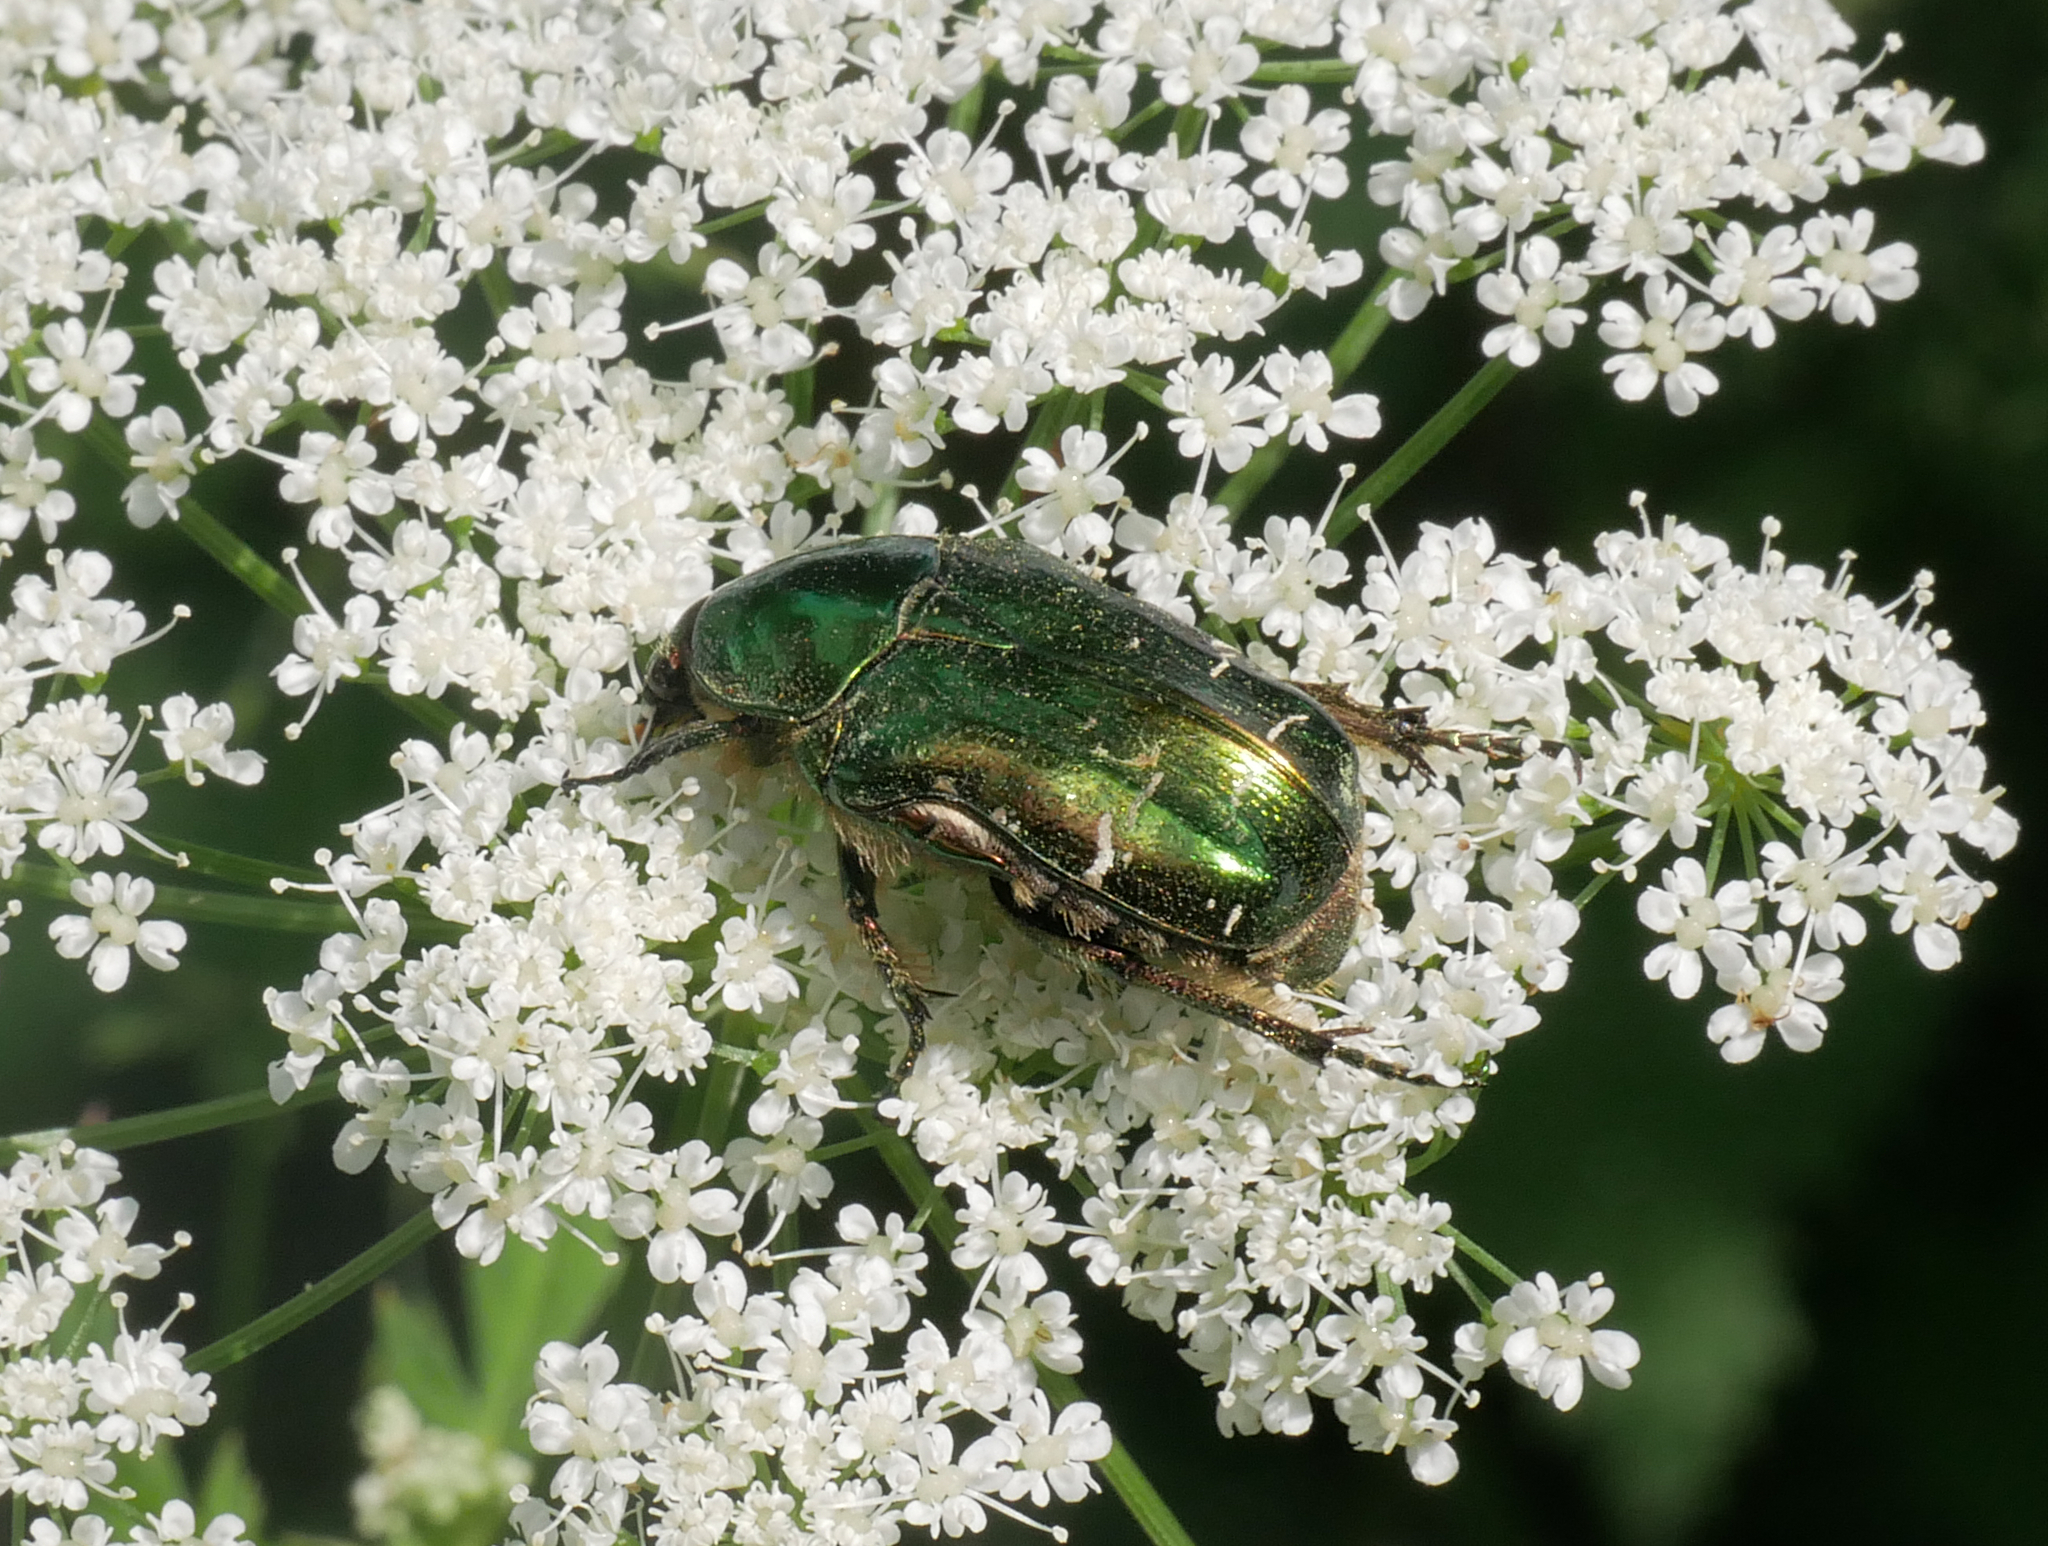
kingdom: Animalia
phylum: Arthropoda
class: Insecta
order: Coleoptera
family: Scarabaeidae
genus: Cetonia
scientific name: Cetonia aurata
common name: Rose chafer
